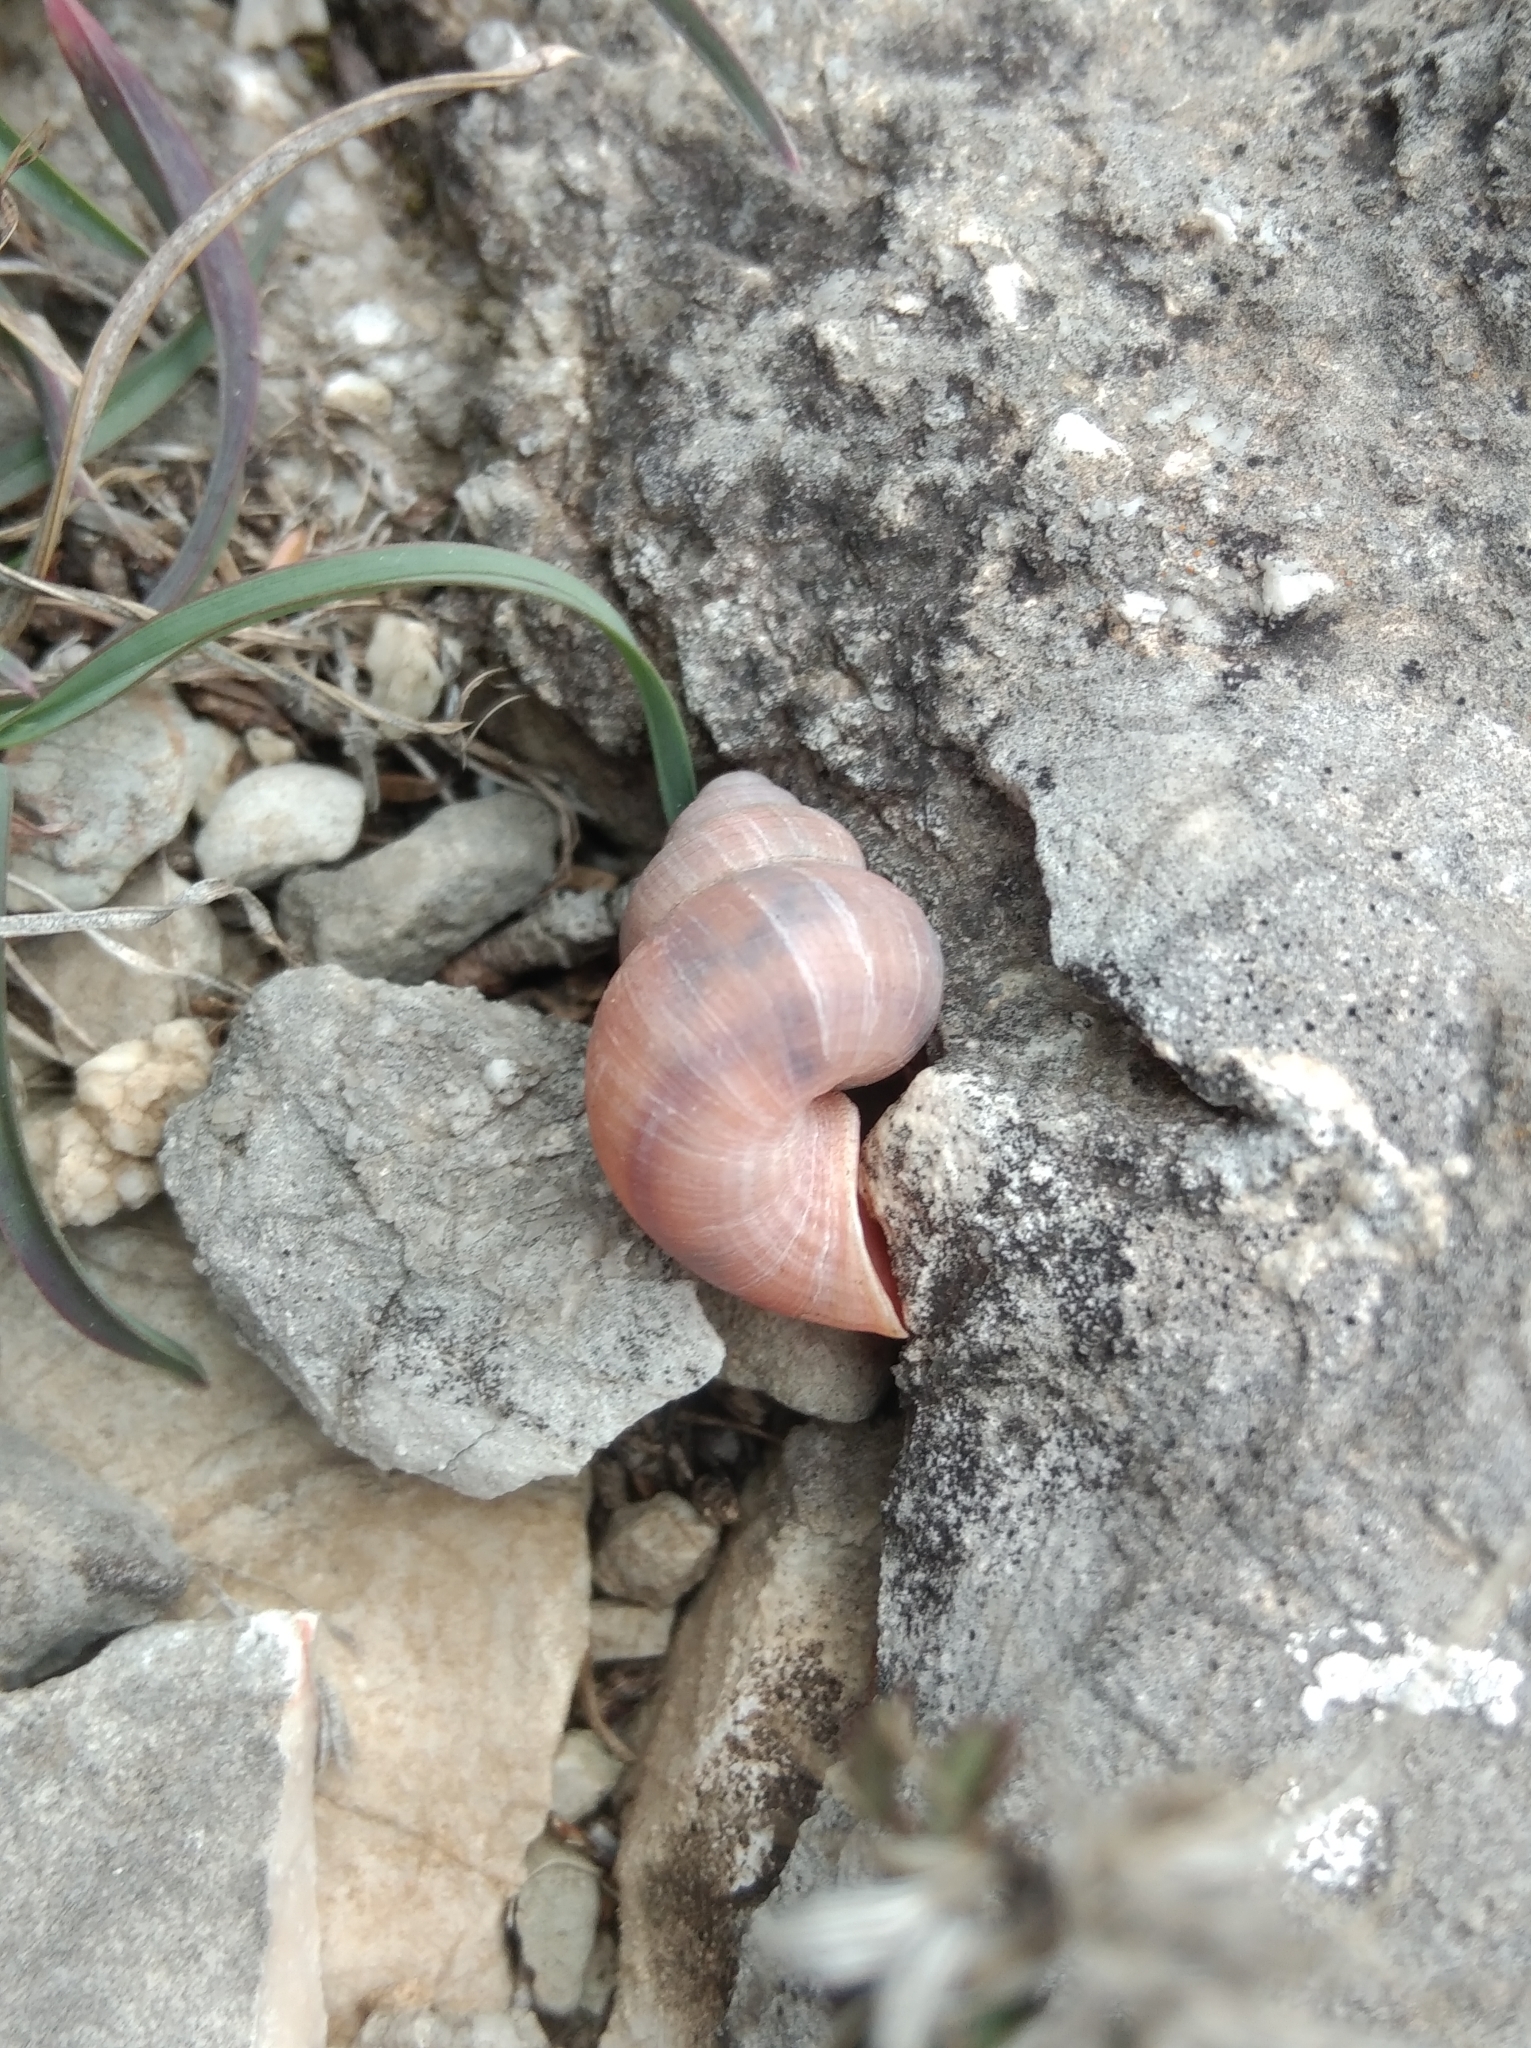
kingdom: Animalia
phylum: Mollusca
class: Gastropoda
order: Littorinimorpha
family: Pomatiidae
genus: Tudorella
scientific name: Tudorella sulcata
